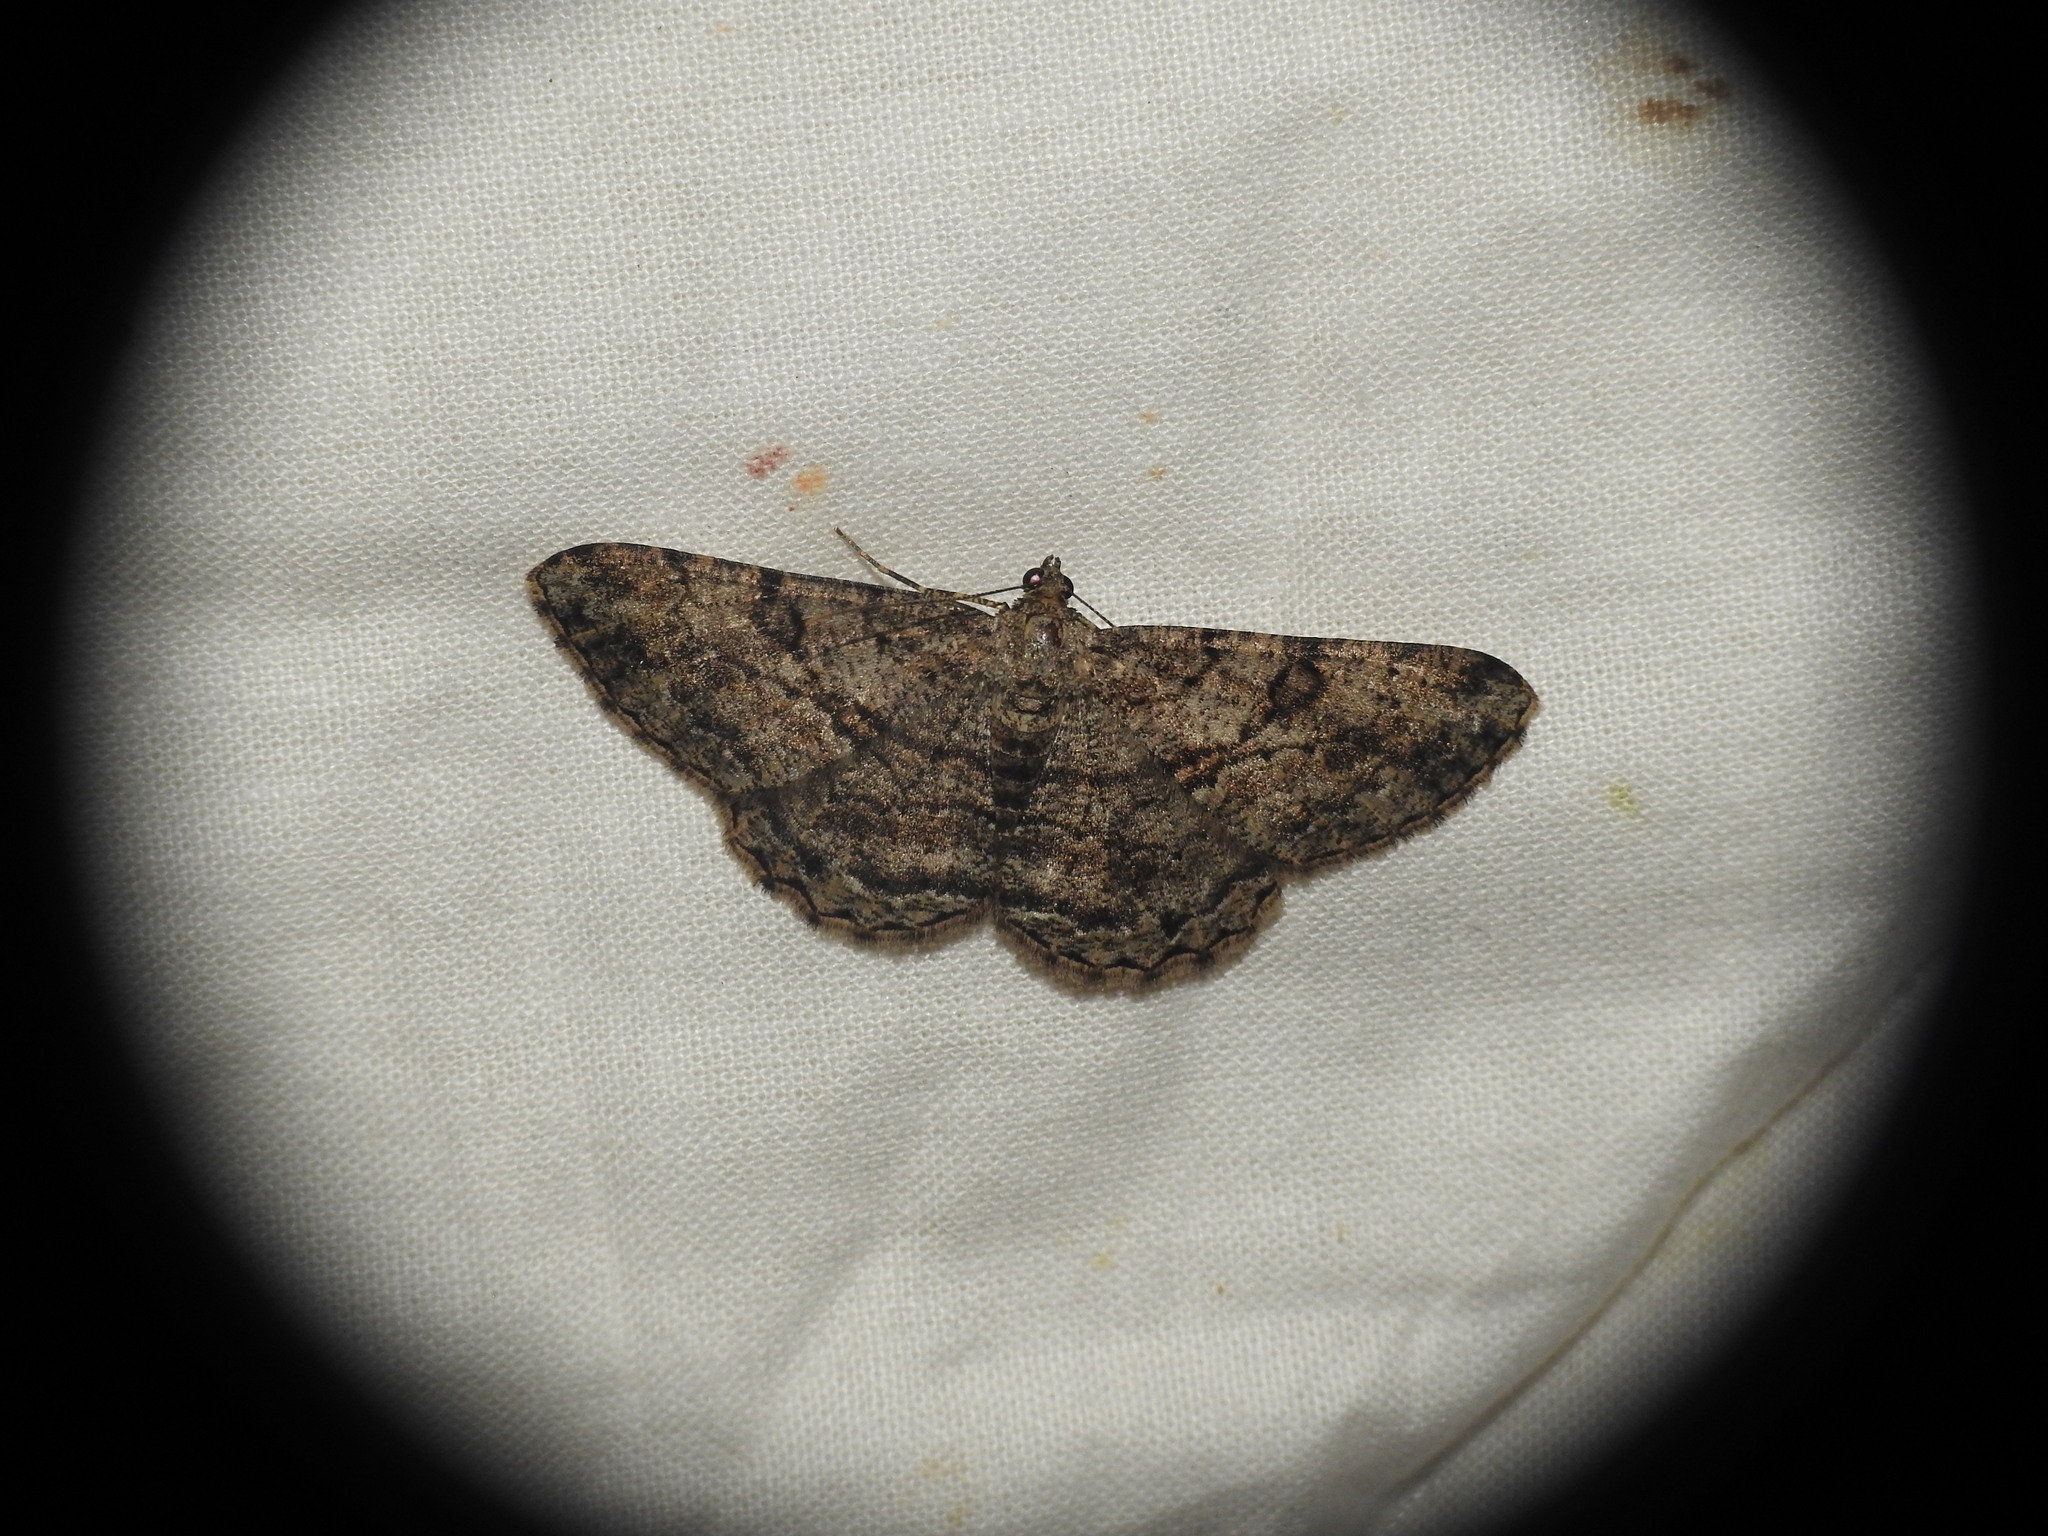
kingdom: Animalia
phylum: Arthropoda
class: Insecta
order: Lepidoptera
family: Geometridae
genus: Peribatodes
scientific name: Peribatodes rhomboidaria
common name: Willow beauty
